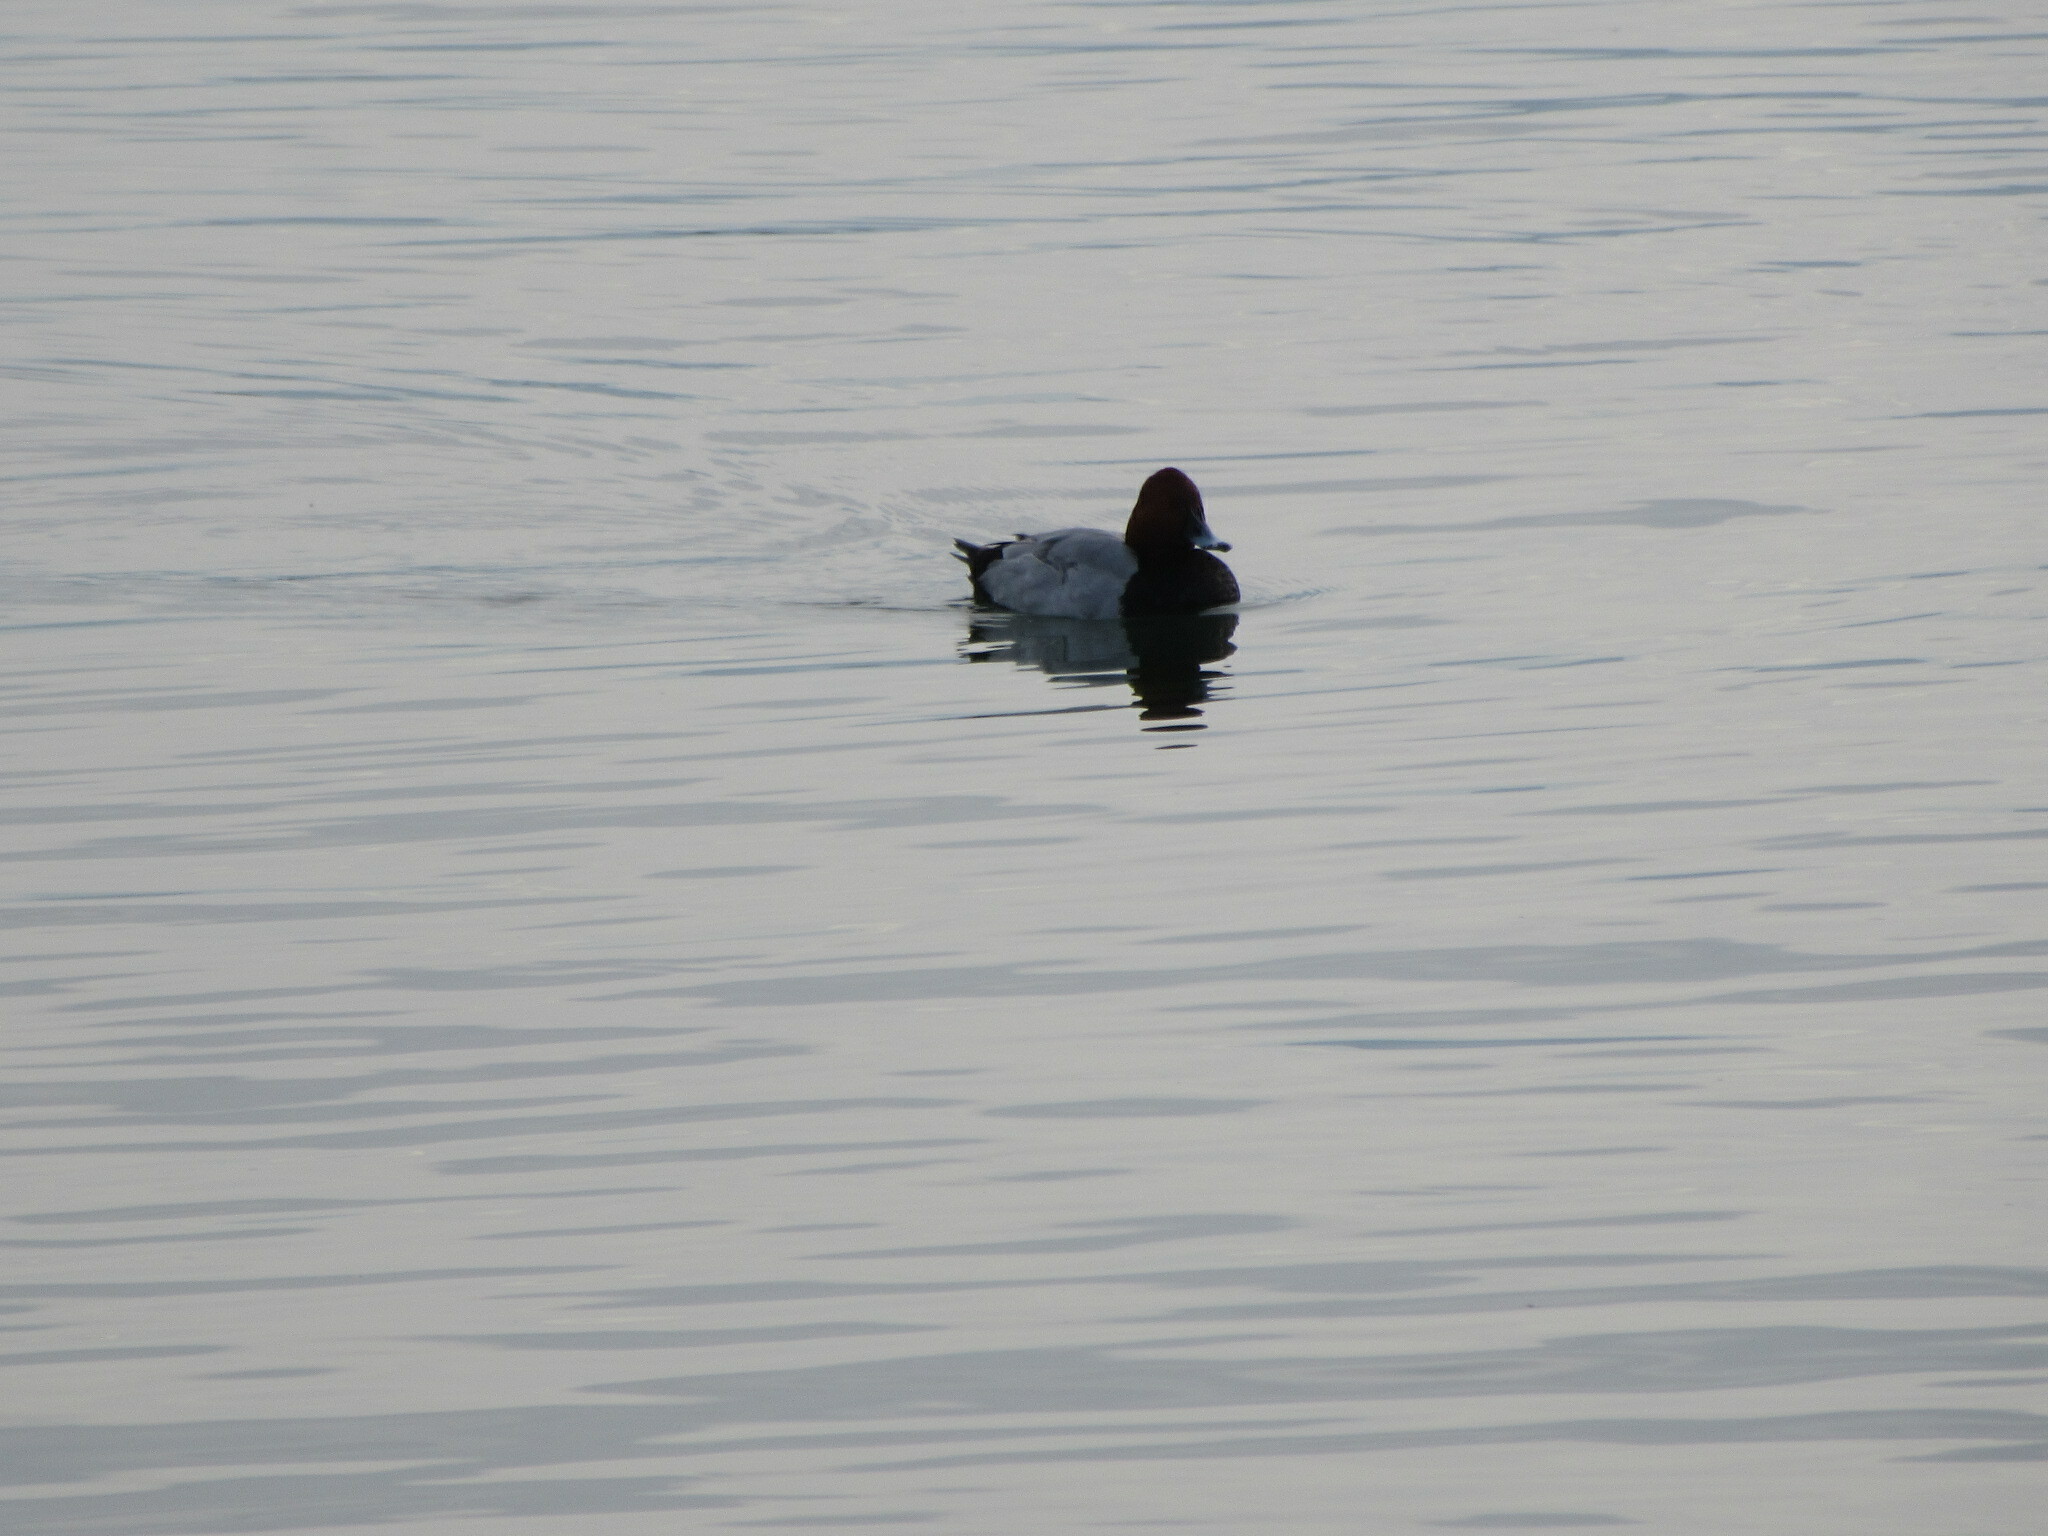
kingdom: Animalia
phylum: Chordata
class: Aves
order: Anseriformes
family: Anatidae
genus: Aythya
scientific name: Aythya ferina
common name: Common pochard
